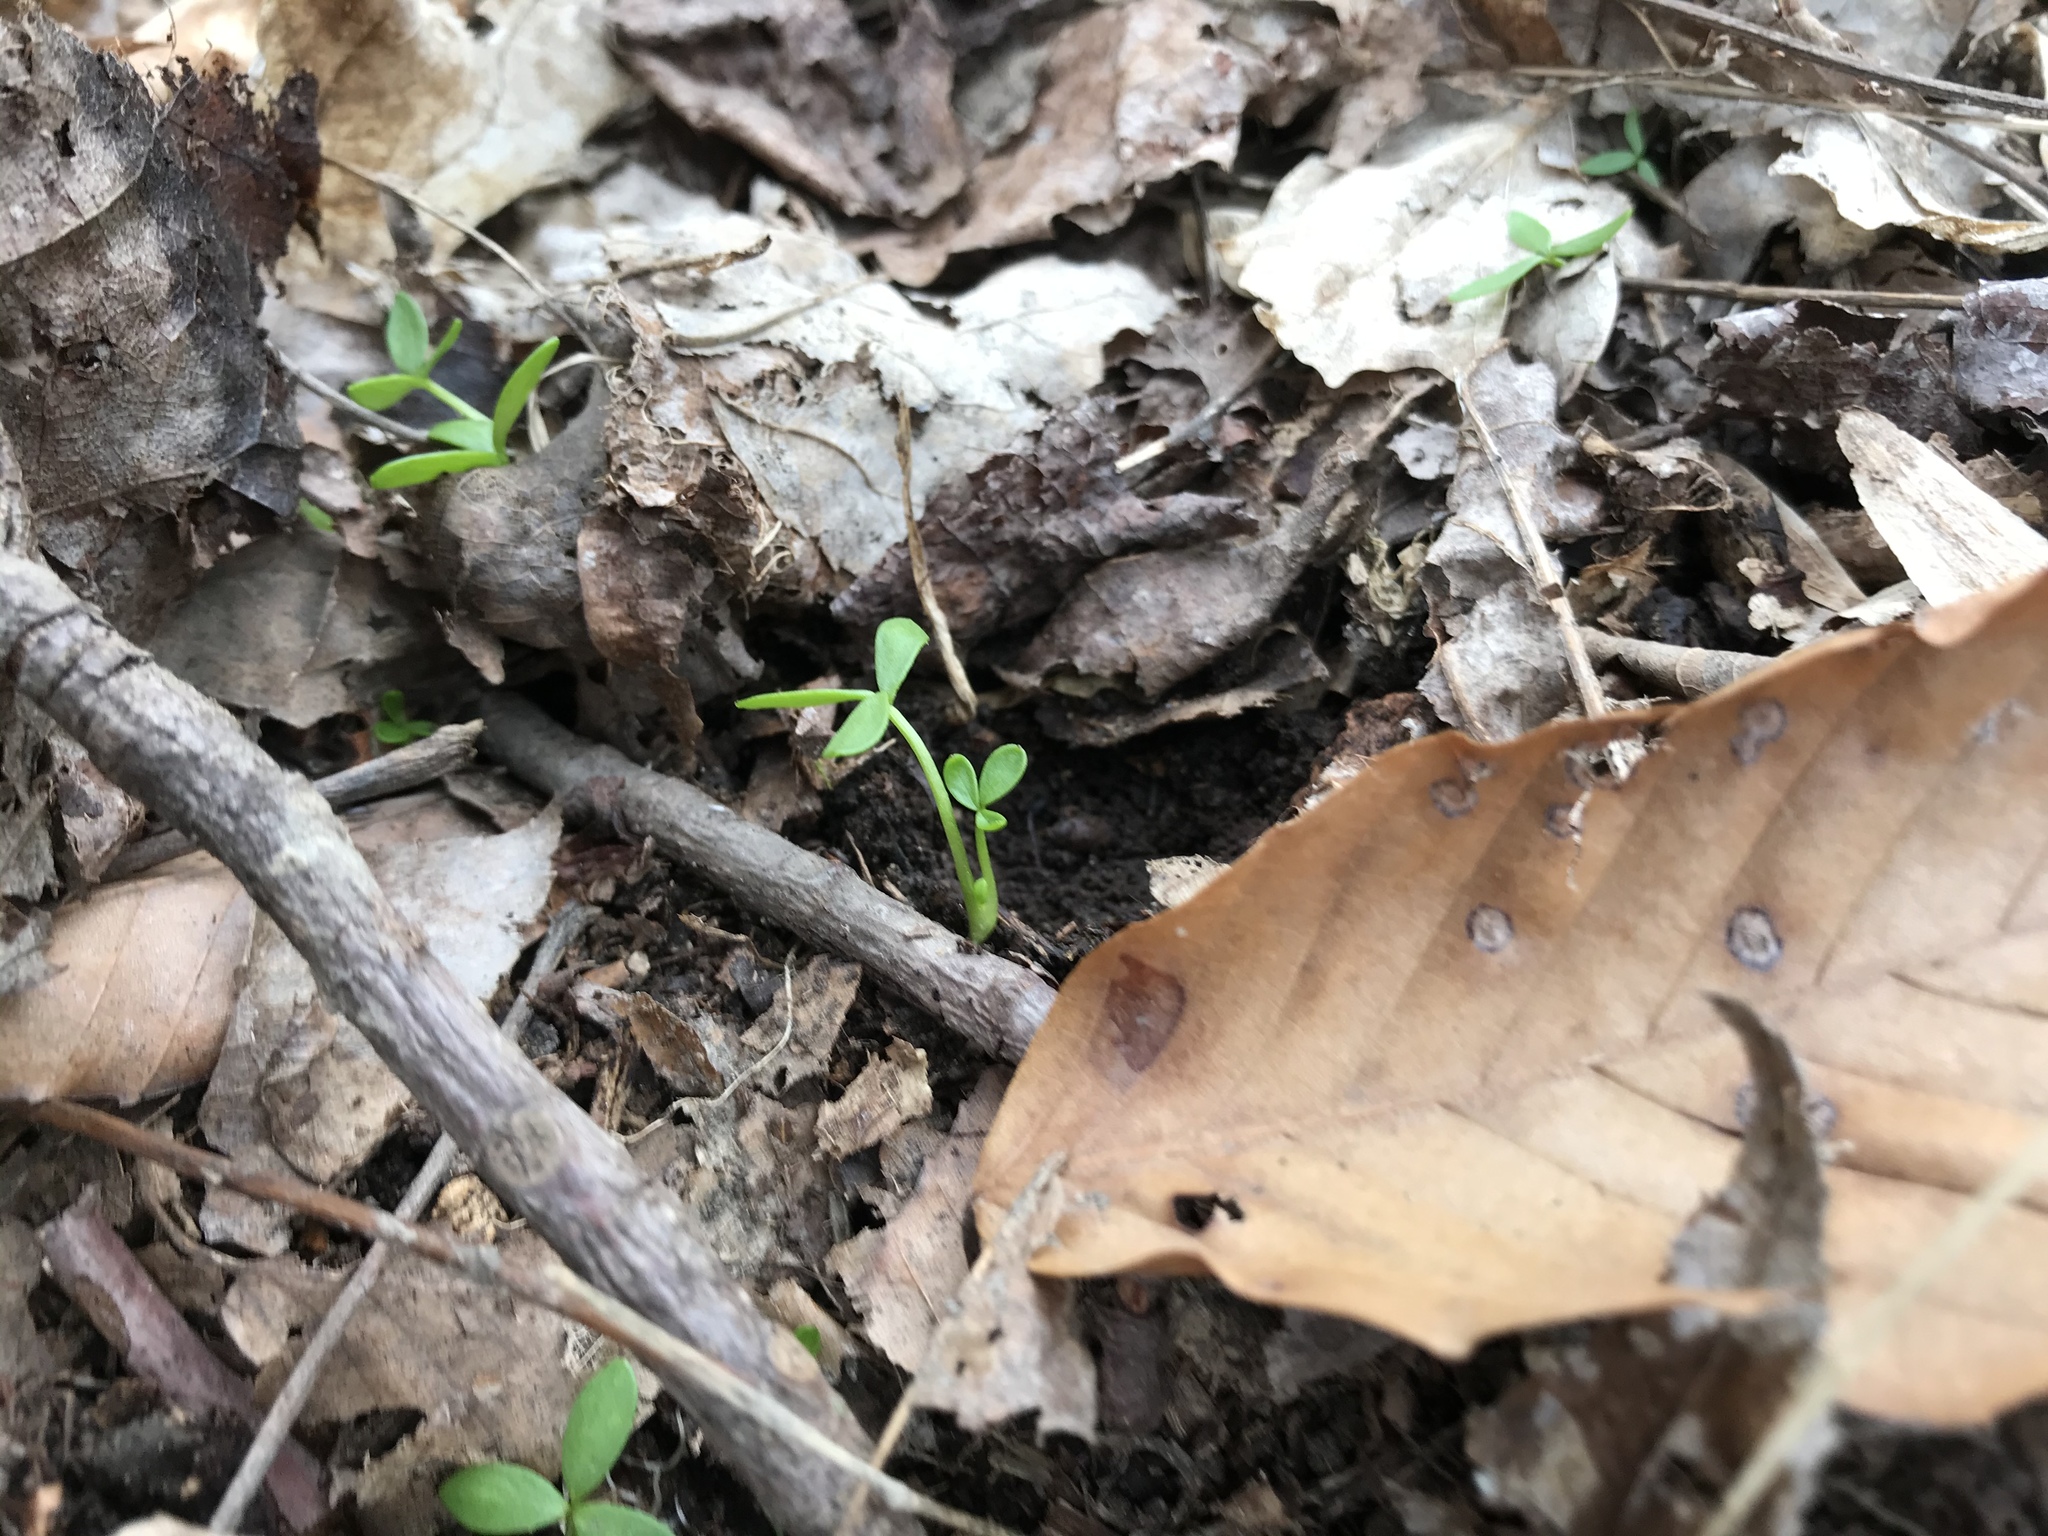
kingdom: Plantae
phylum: Tracheophyta
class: Magnoliopsida
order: Brassicales
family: Limnanthaceae
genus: Floerkea
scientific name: Floerkea proserpinacoides
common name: False mermaid
